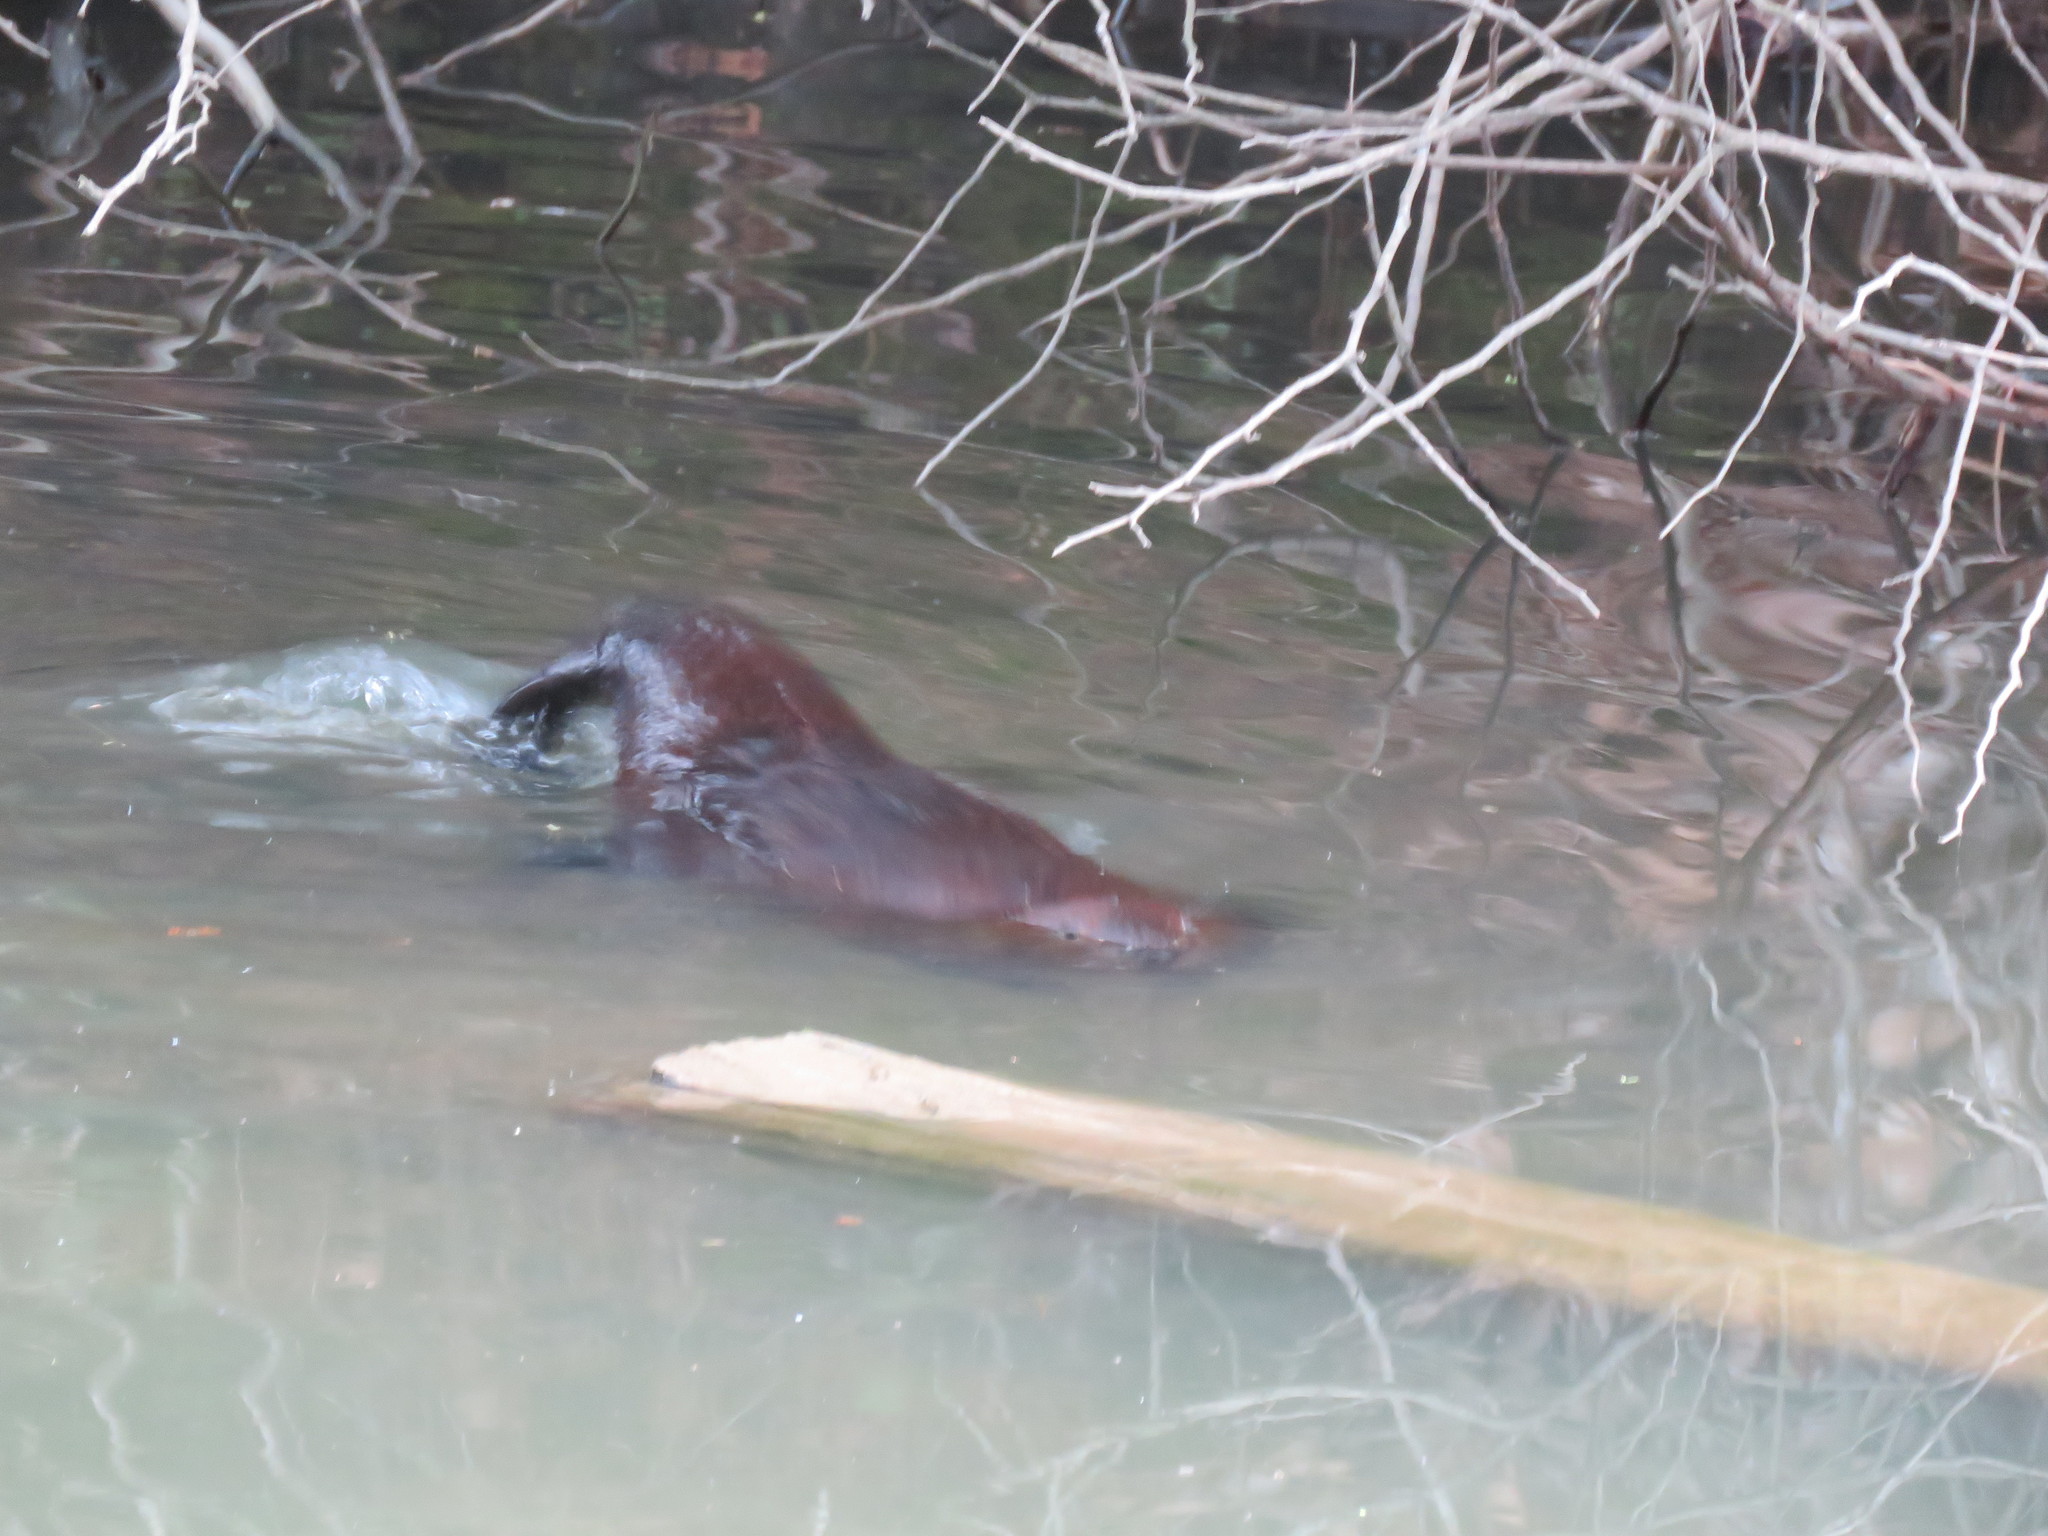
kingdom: Animalia
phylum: Chordata
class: Mammalia
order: Rodentia
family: Castoridae
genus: Castor
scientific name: Castor canadensis
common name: American beaver
